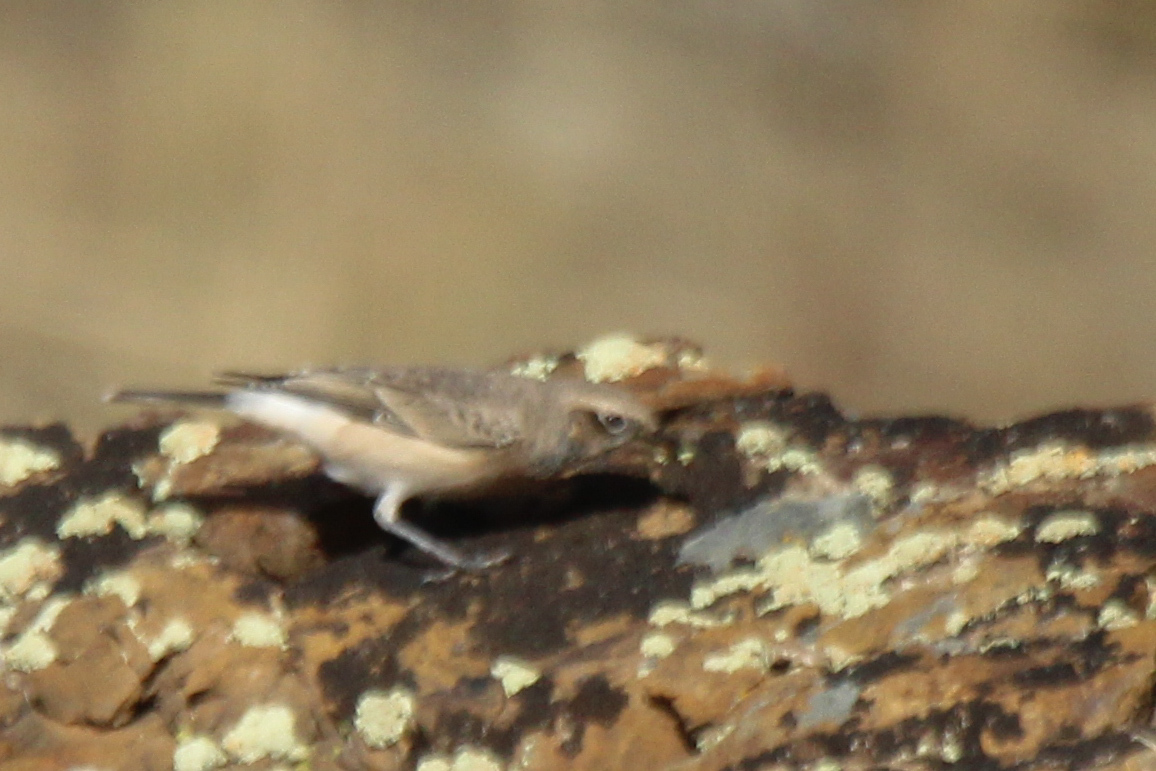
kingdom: Animalia
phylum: Chordata
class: Aves
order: Passeriformes
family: Muscicapidae
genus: Oenanthe
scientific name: Oenanthe pleschanka
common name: Pied wheatear
